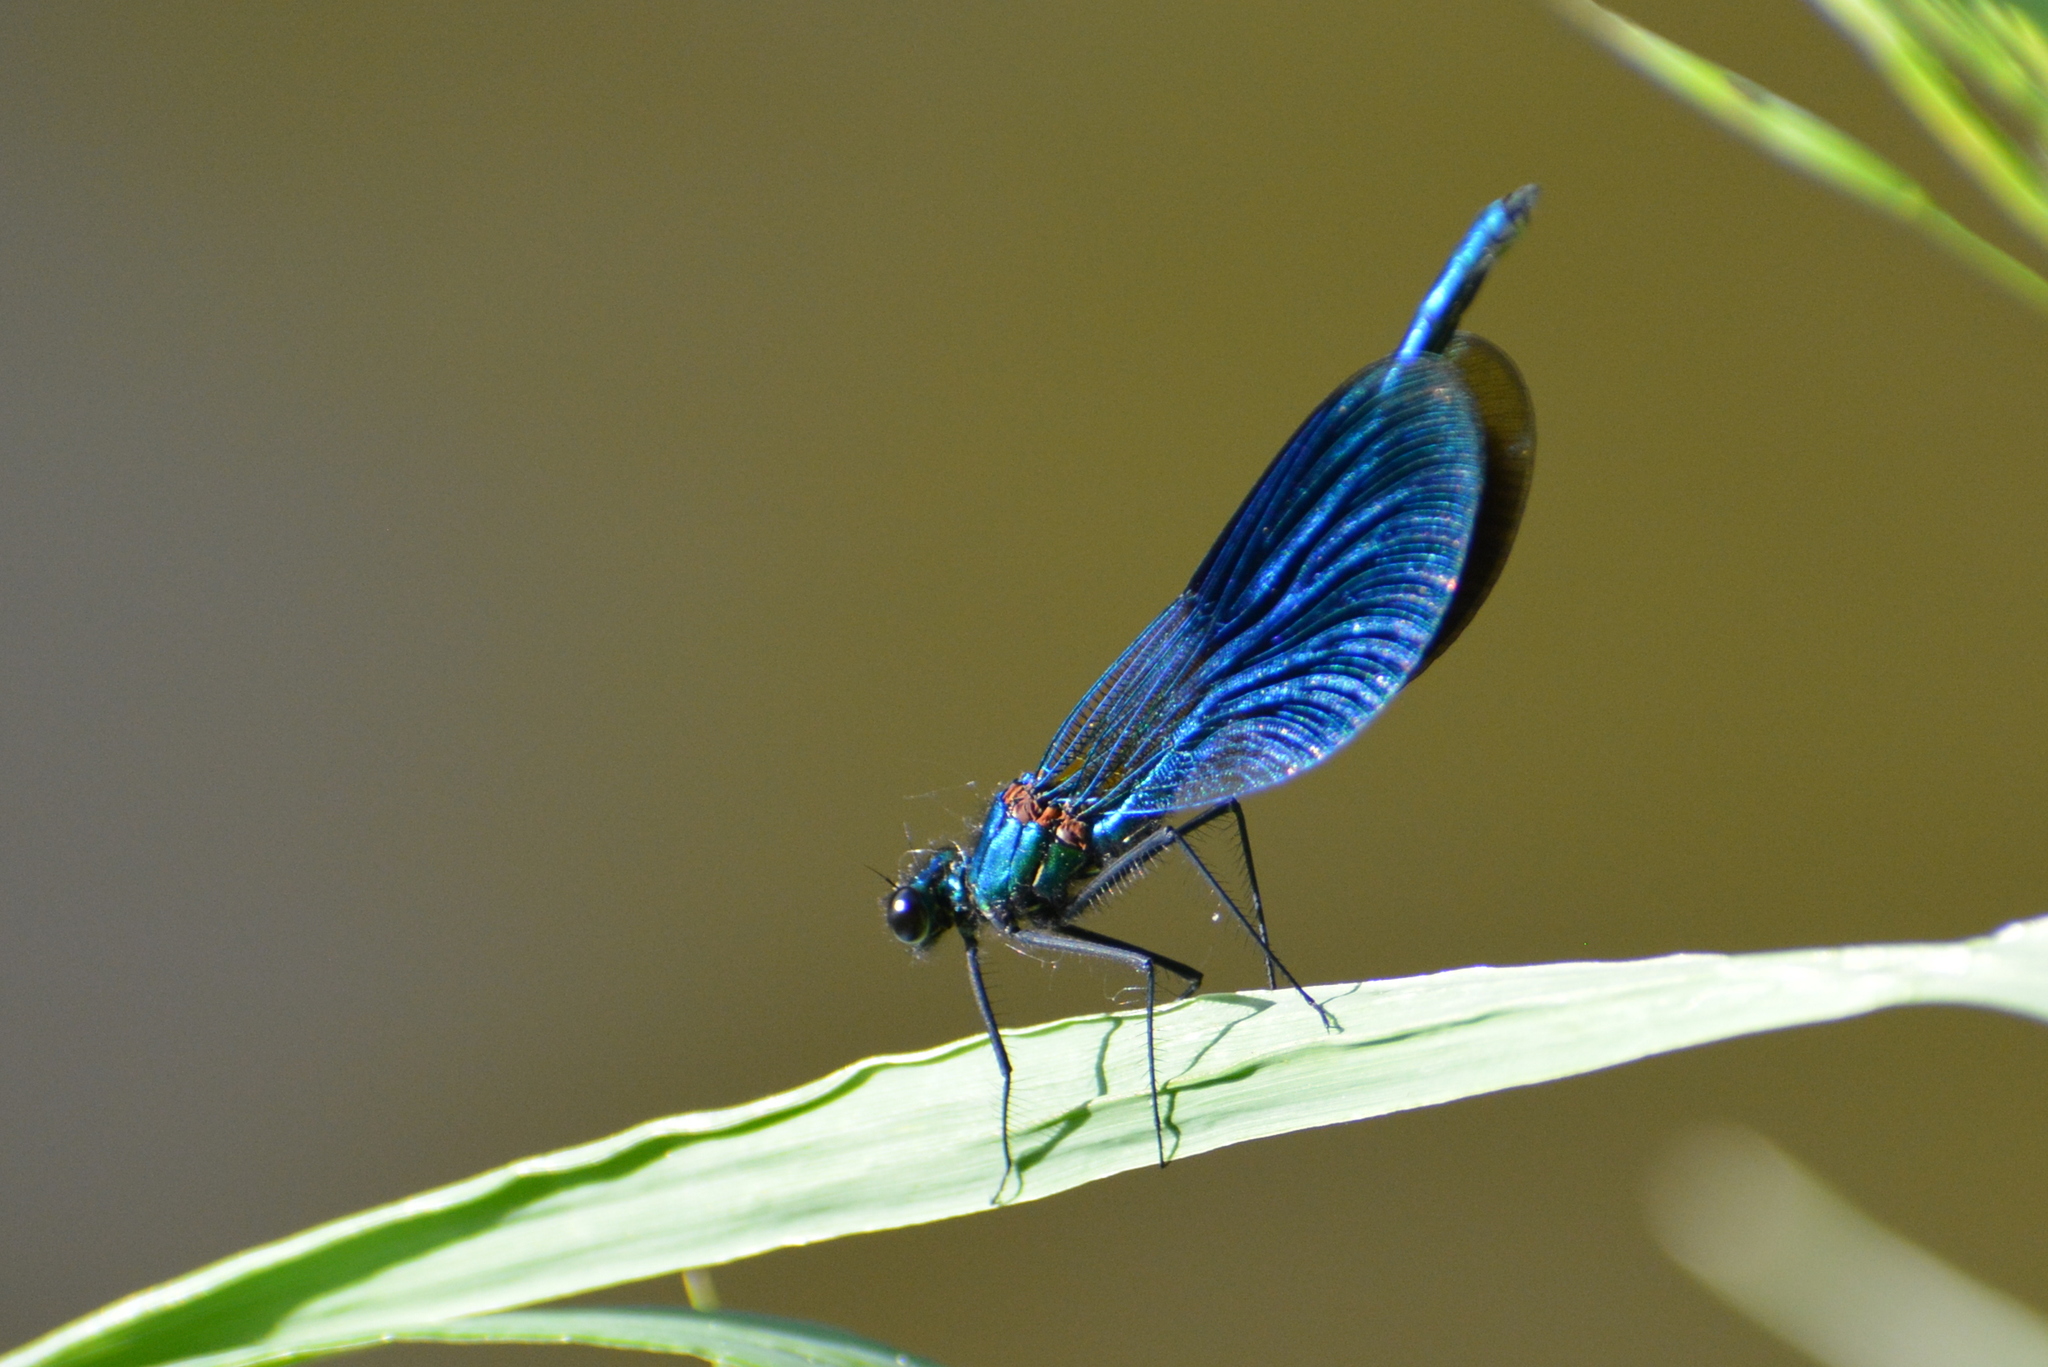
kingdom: Animalia
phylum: Arthropoda
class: Insecta
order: Odonata
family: Calopterygidae
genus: Calopteryx
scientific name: Calopteryx splendens
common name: Banded demoiselle
